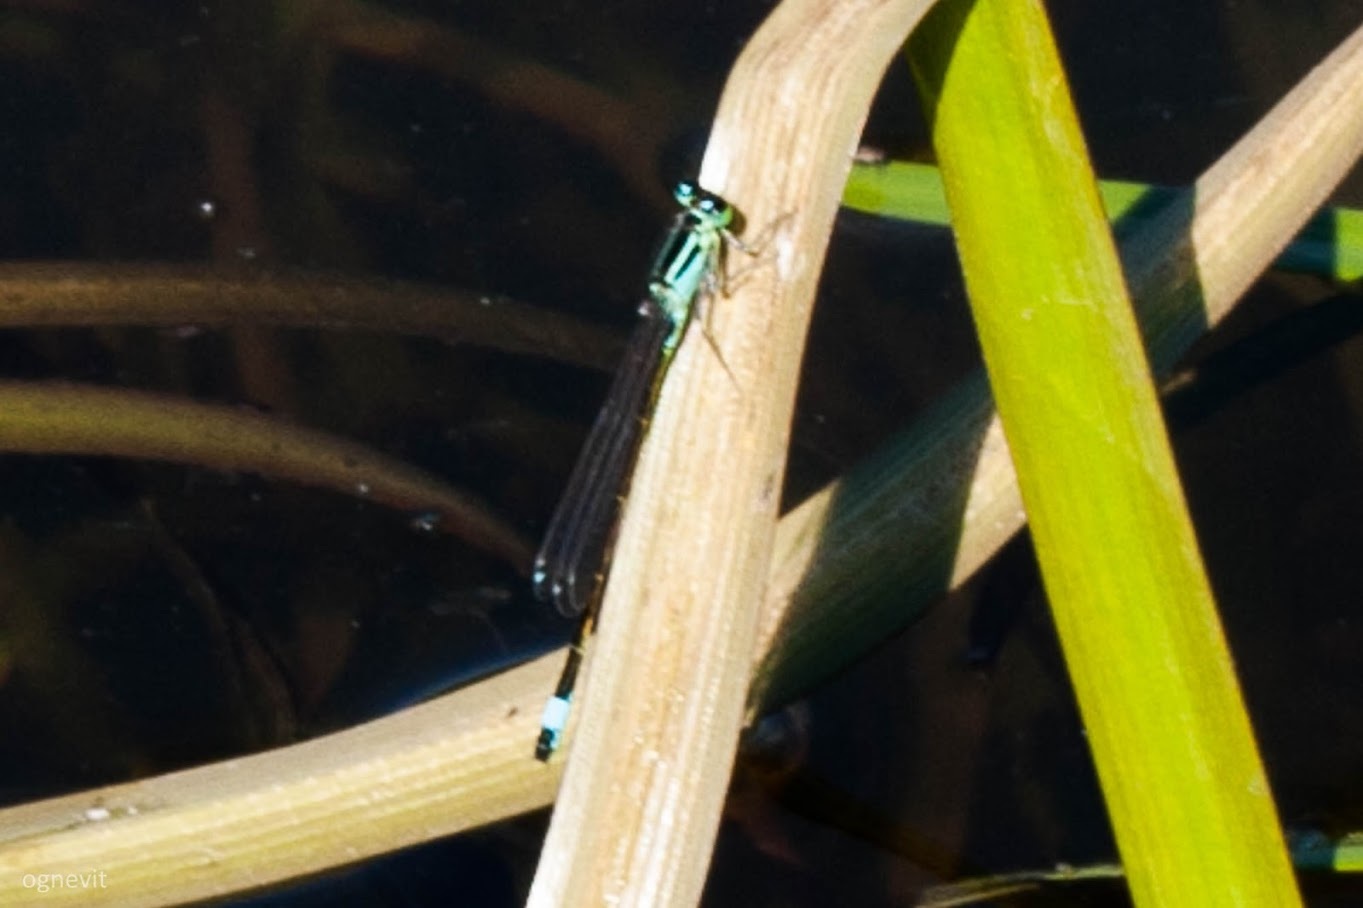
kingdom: Animalia
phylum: Arthropoda
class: Insecta
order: Odonata
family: Coenagrionidae
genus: Ischnura
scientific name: Ischnura elegans
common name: Blue-tailed damselfly
